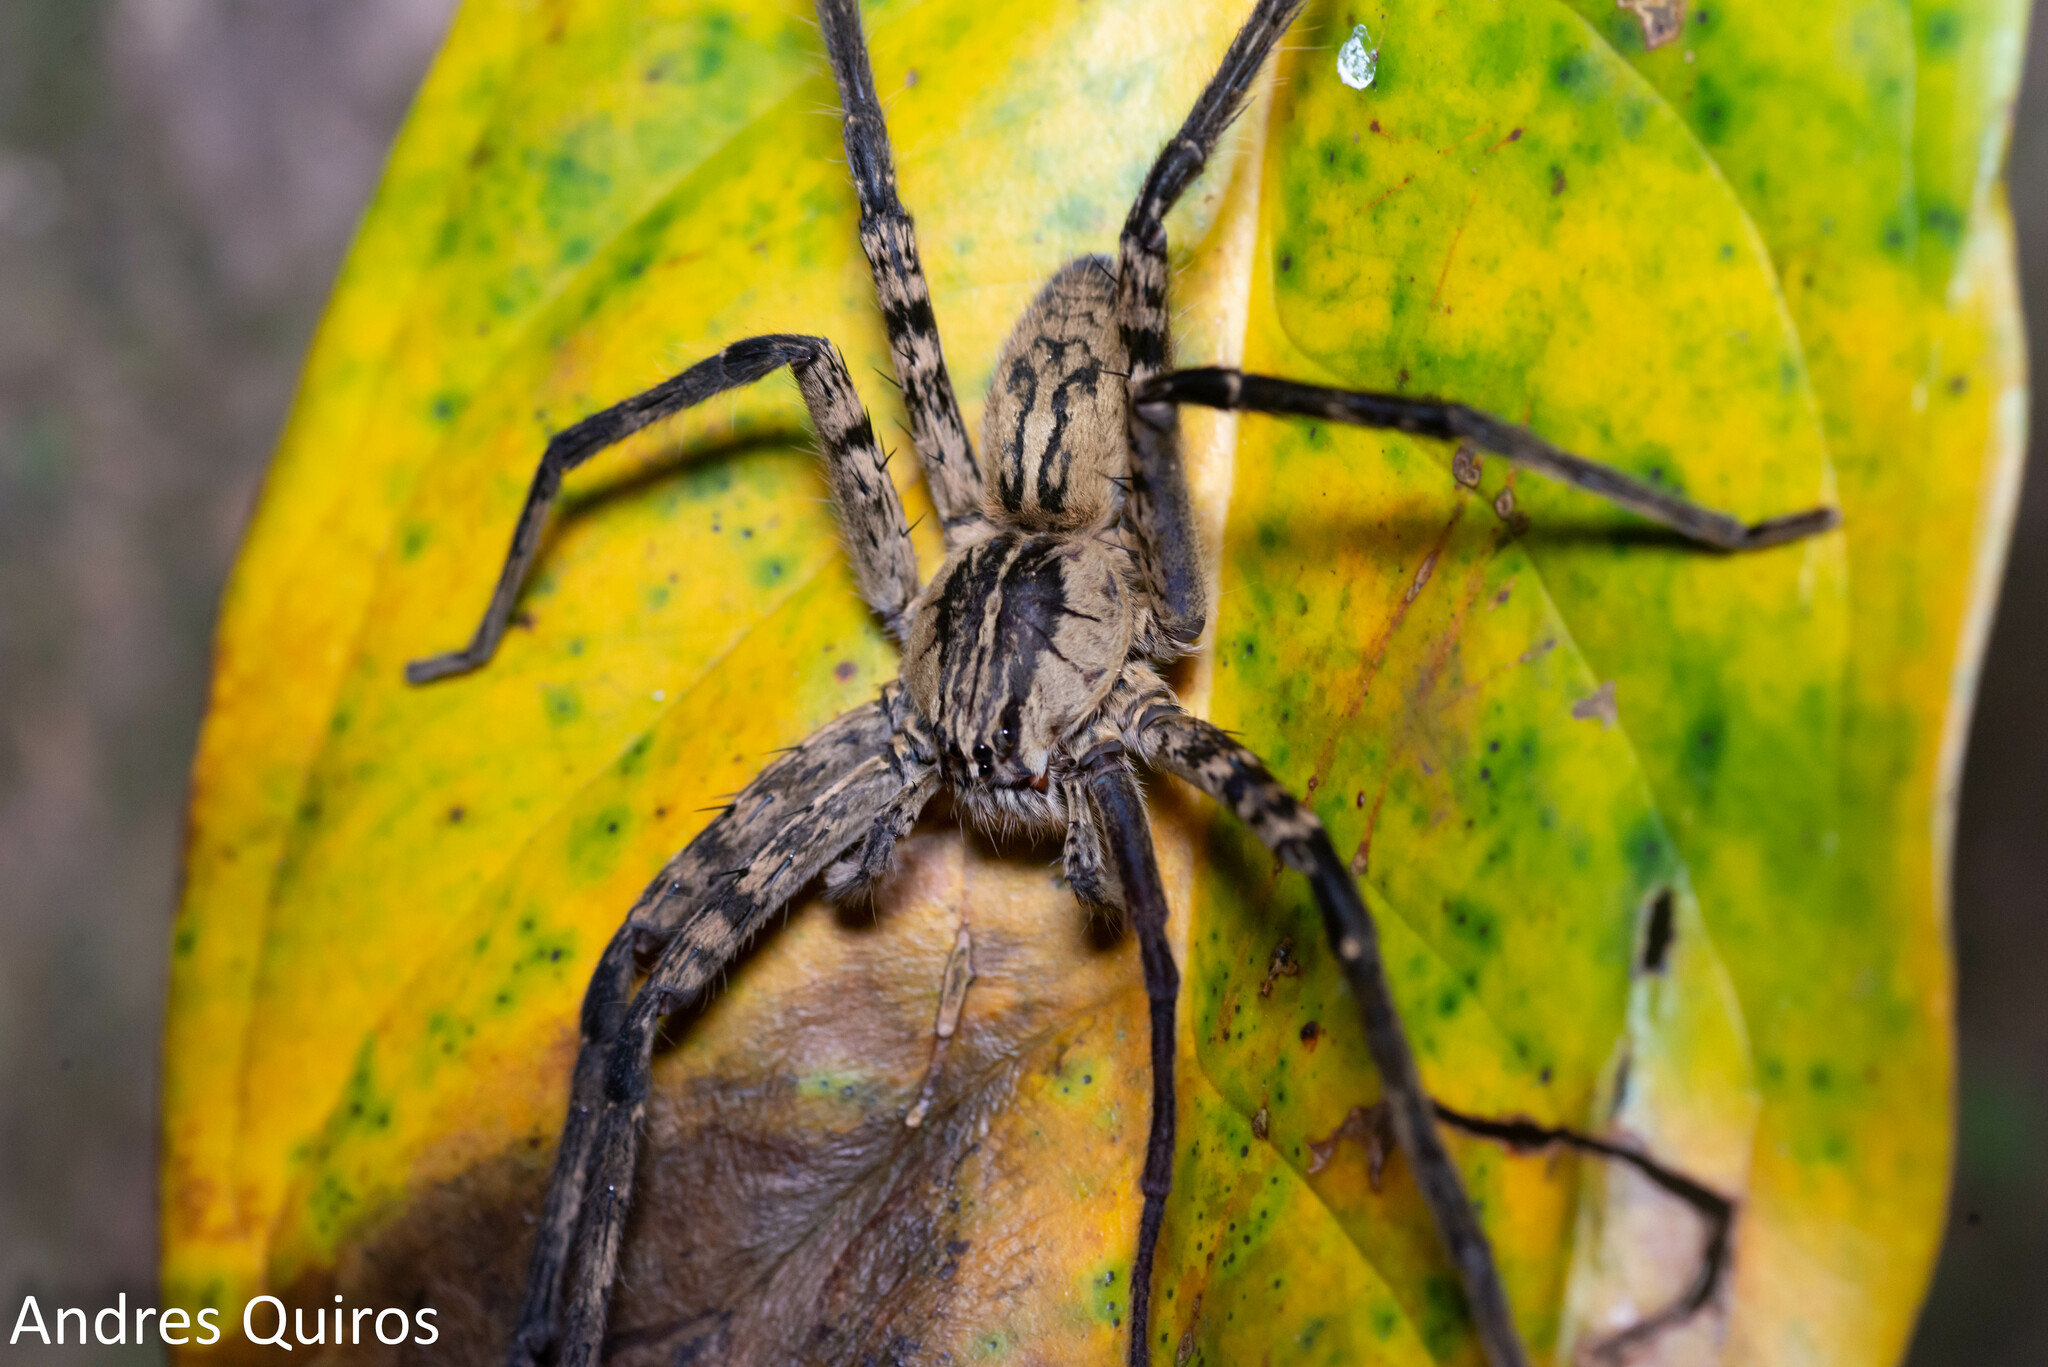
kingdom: Animalia
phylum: Arthropoda
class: Arachnida
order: Araneae
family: Trechaleidae
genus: Cupiennius
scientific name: Cupiennius coccineus
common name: Wandering spiders
